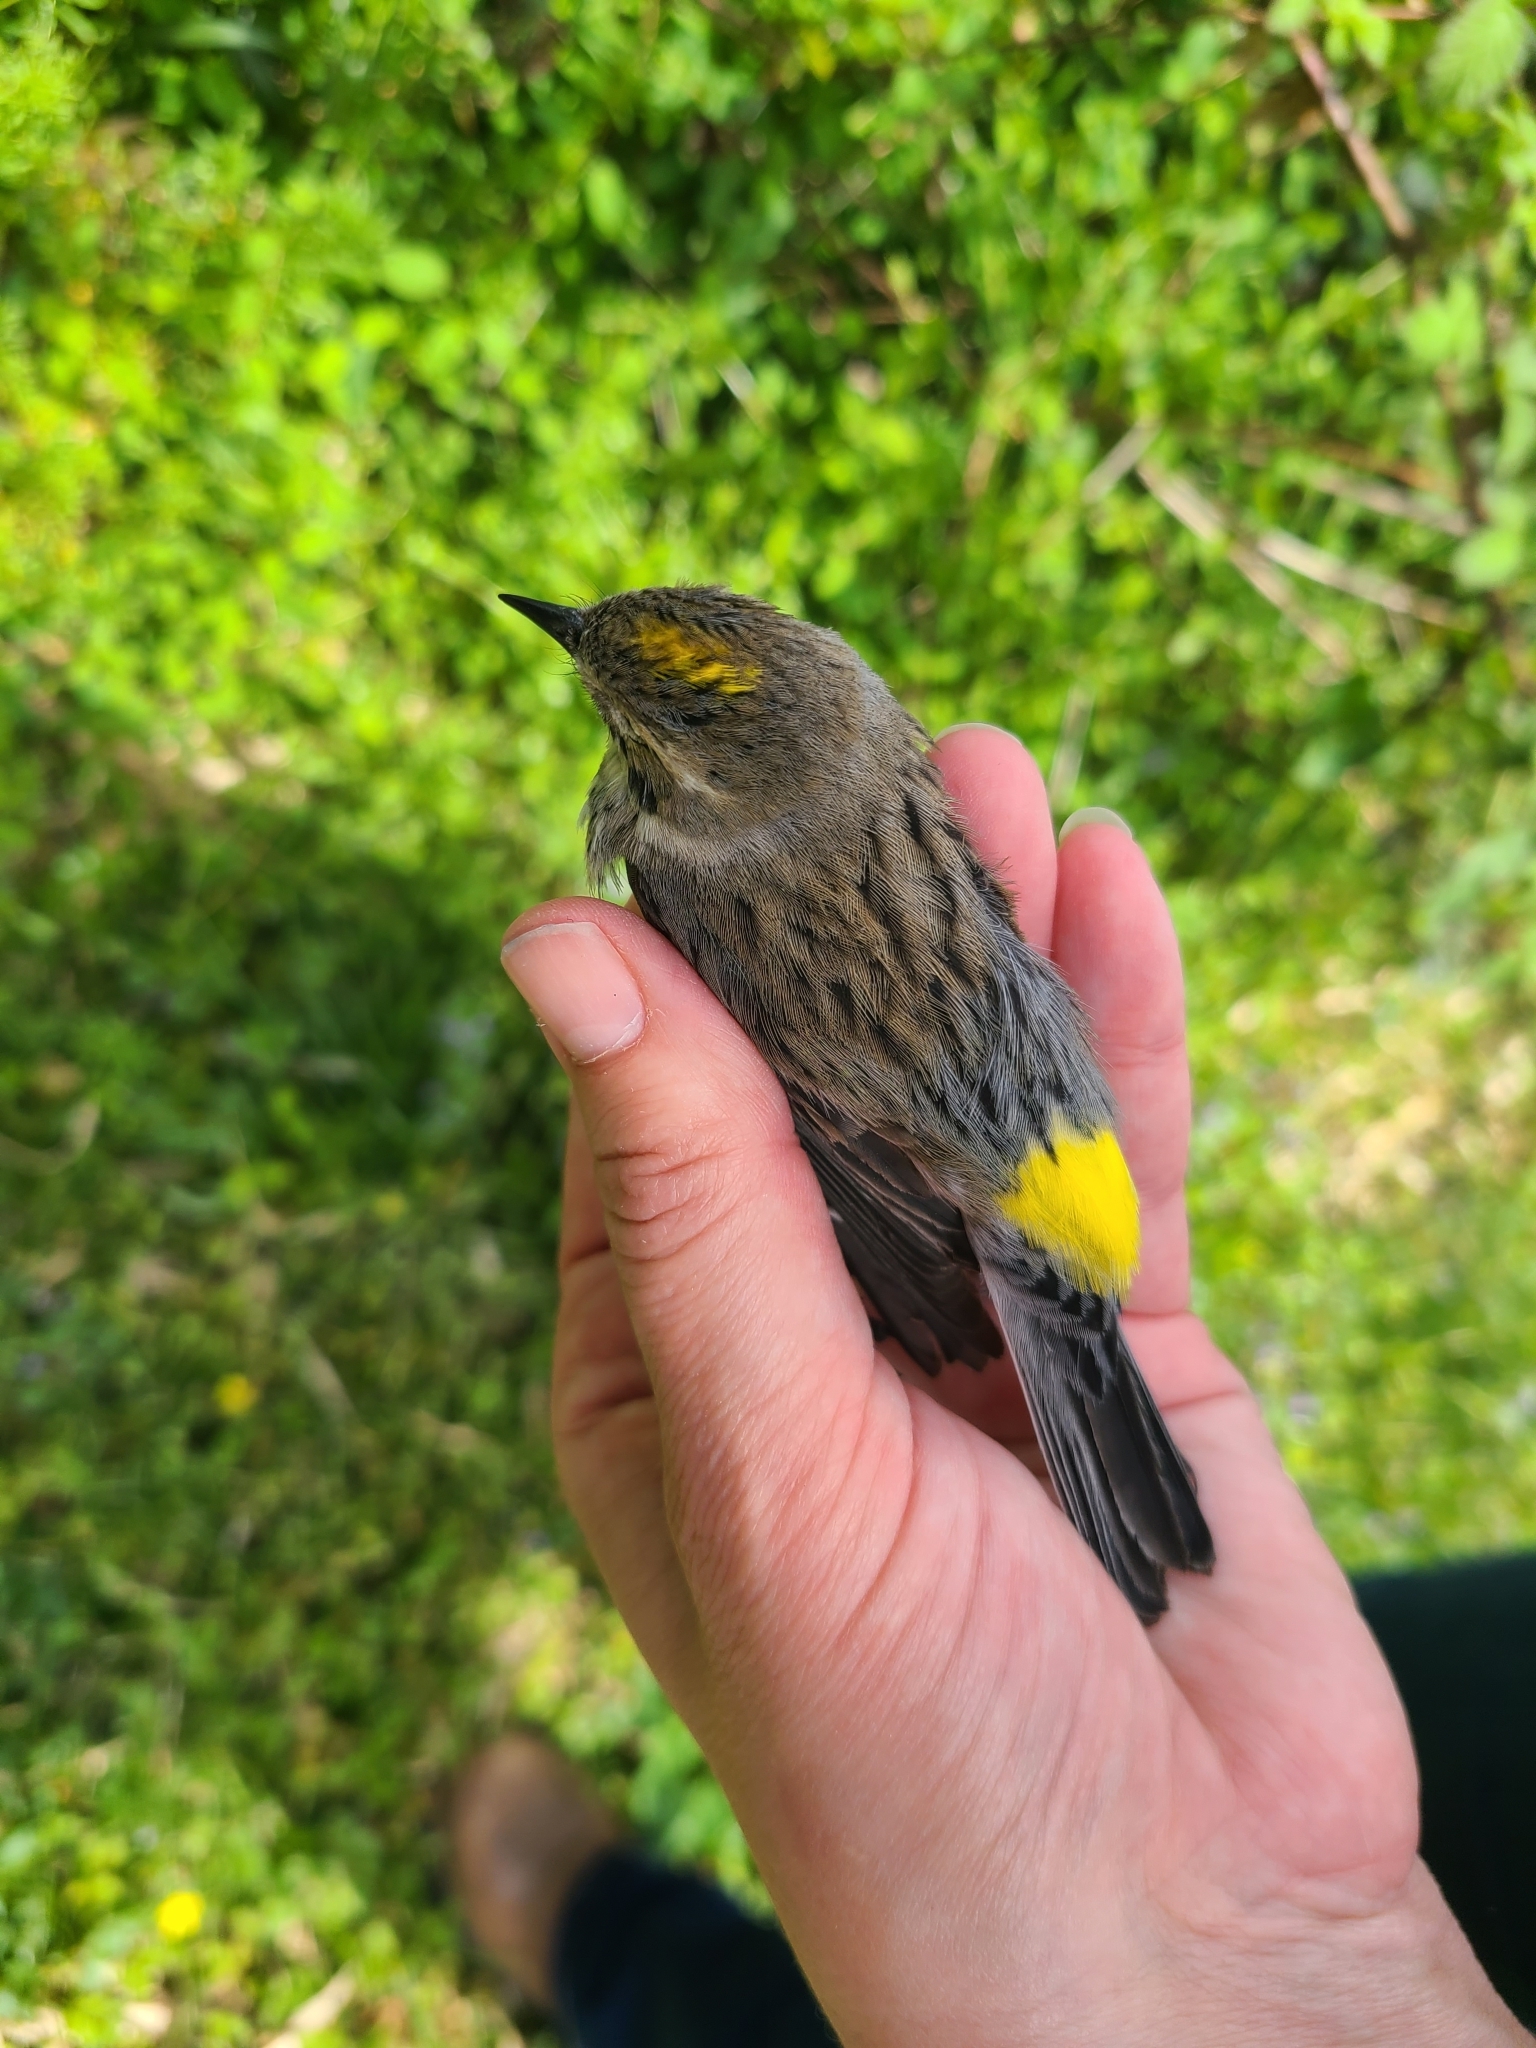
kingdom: Animalia
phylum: Chordata
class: Aves
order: Passeriformes
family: Parulidae
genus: Setophaga
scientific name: Setophaga coronata
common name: Myrtle warbler
